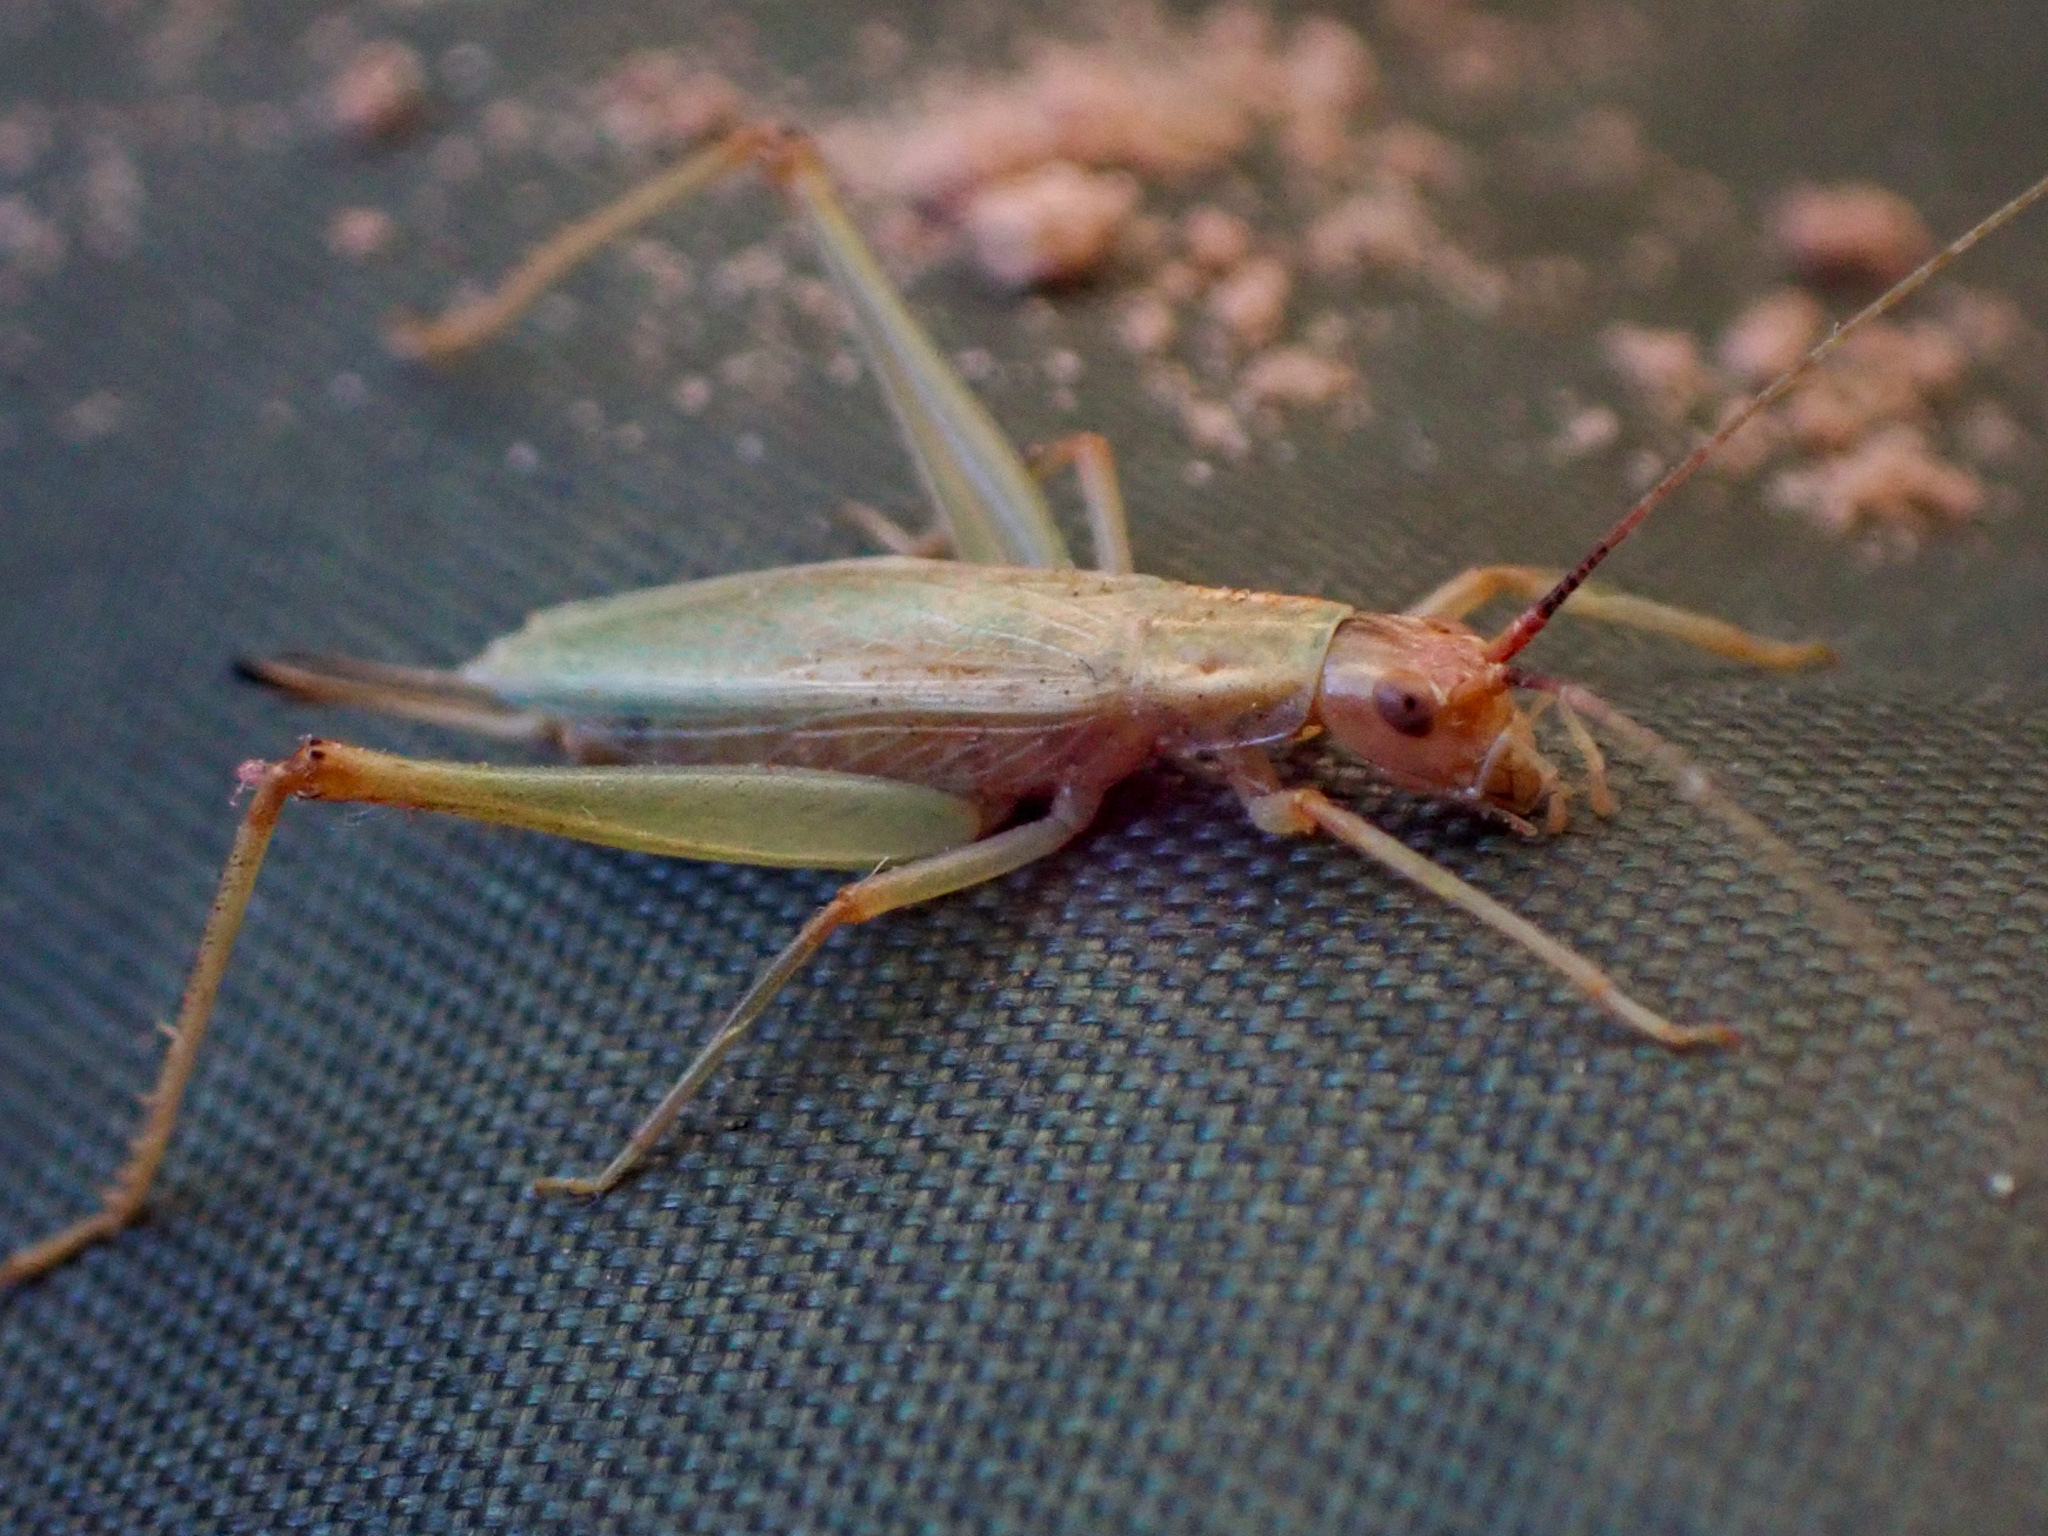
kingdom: Animalia
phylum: Arthropoda
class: Insecta
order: Orthoptera
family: Gryllidae
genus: Oecanthus
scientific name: Oecanthus californicus
